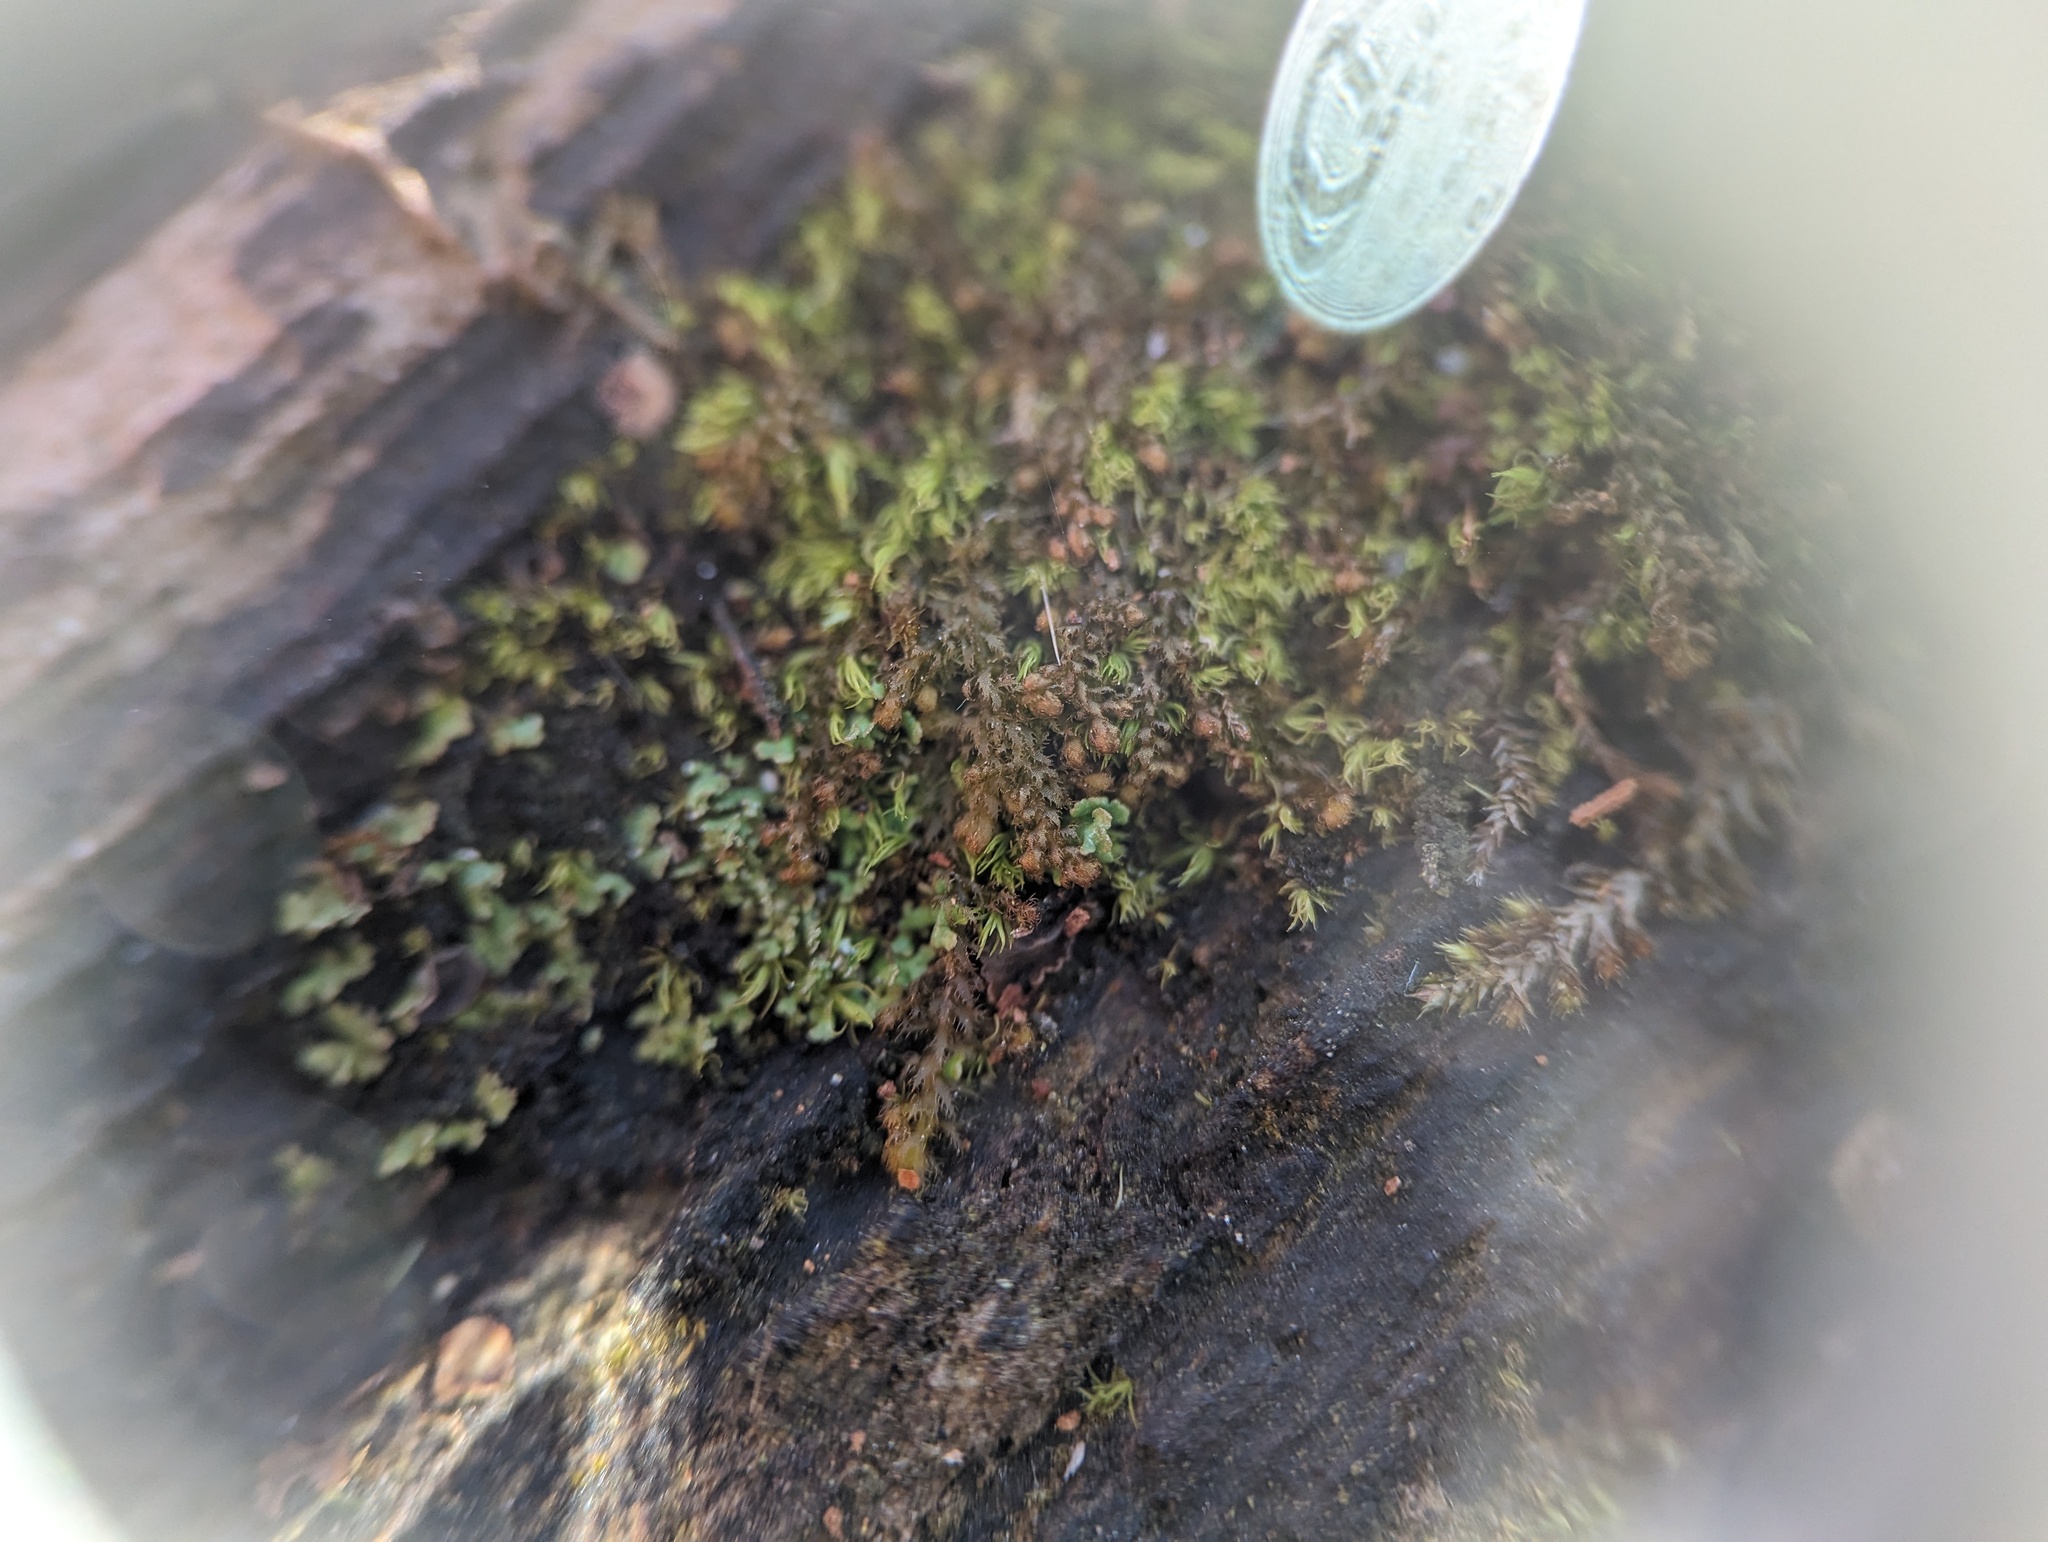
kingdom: Plantae
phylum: Marchantiophyta
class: Jungermanniopsida
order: Ptilidiales
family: Ptilidiaceae
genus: Ptilidium
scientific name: Ptilidium pulcherrimum
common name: Tree fringewort
